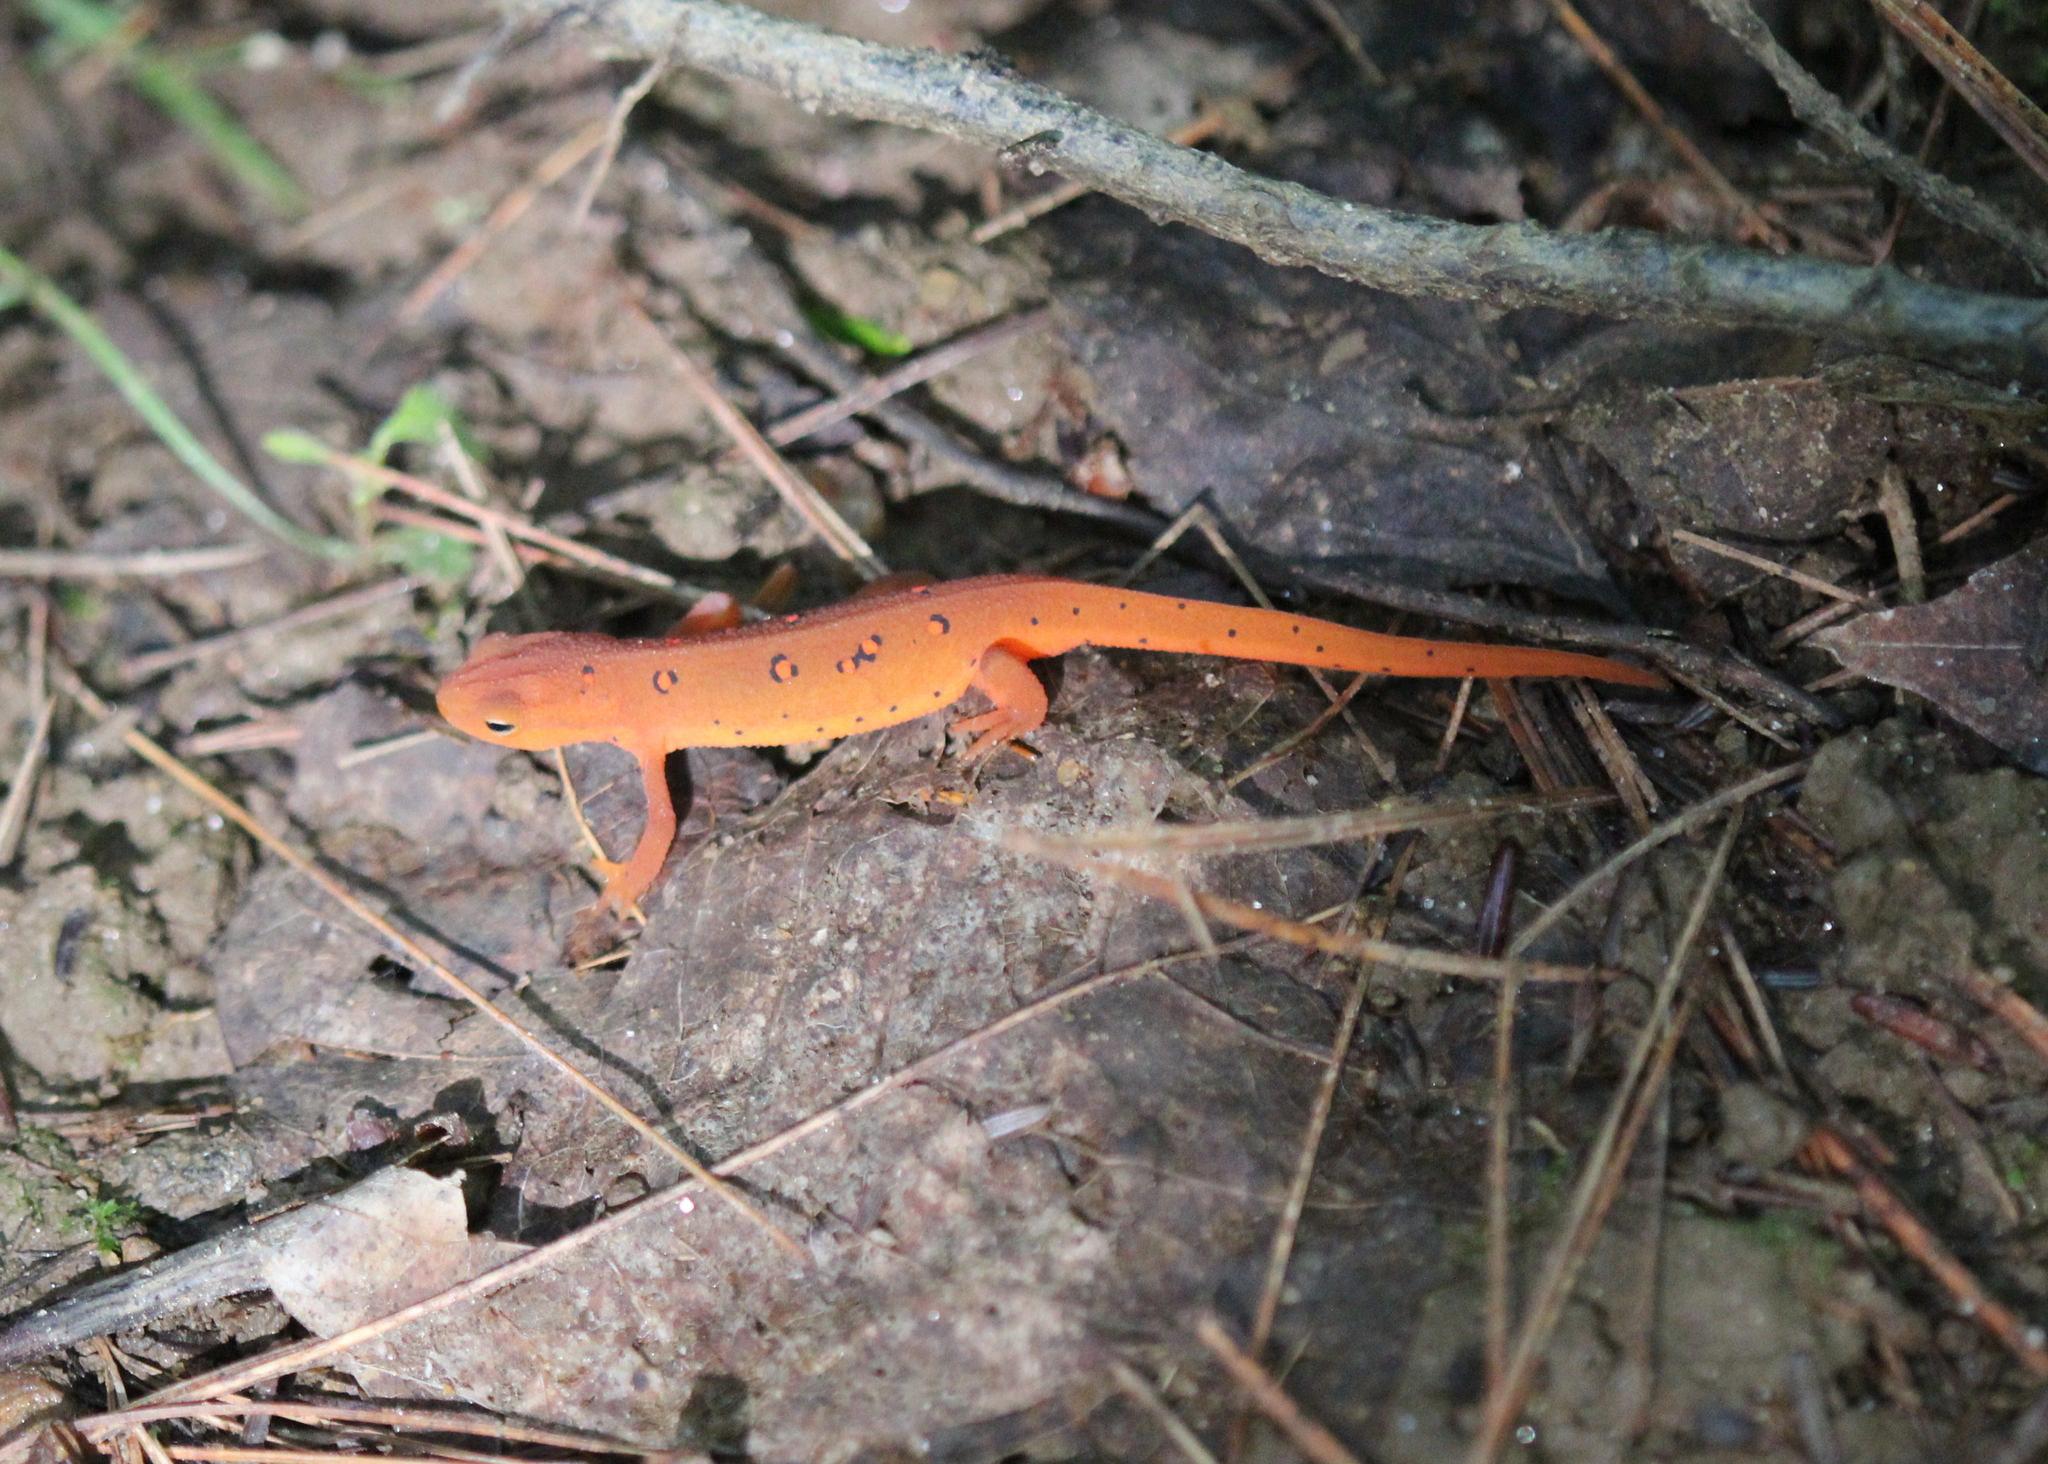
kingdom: Animalia
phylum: Chordata
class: Amphibia
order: Caudata
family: Salamandridae
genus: Notophthalmus
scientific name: Notophthalmus viridescens
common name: Eastern newt
